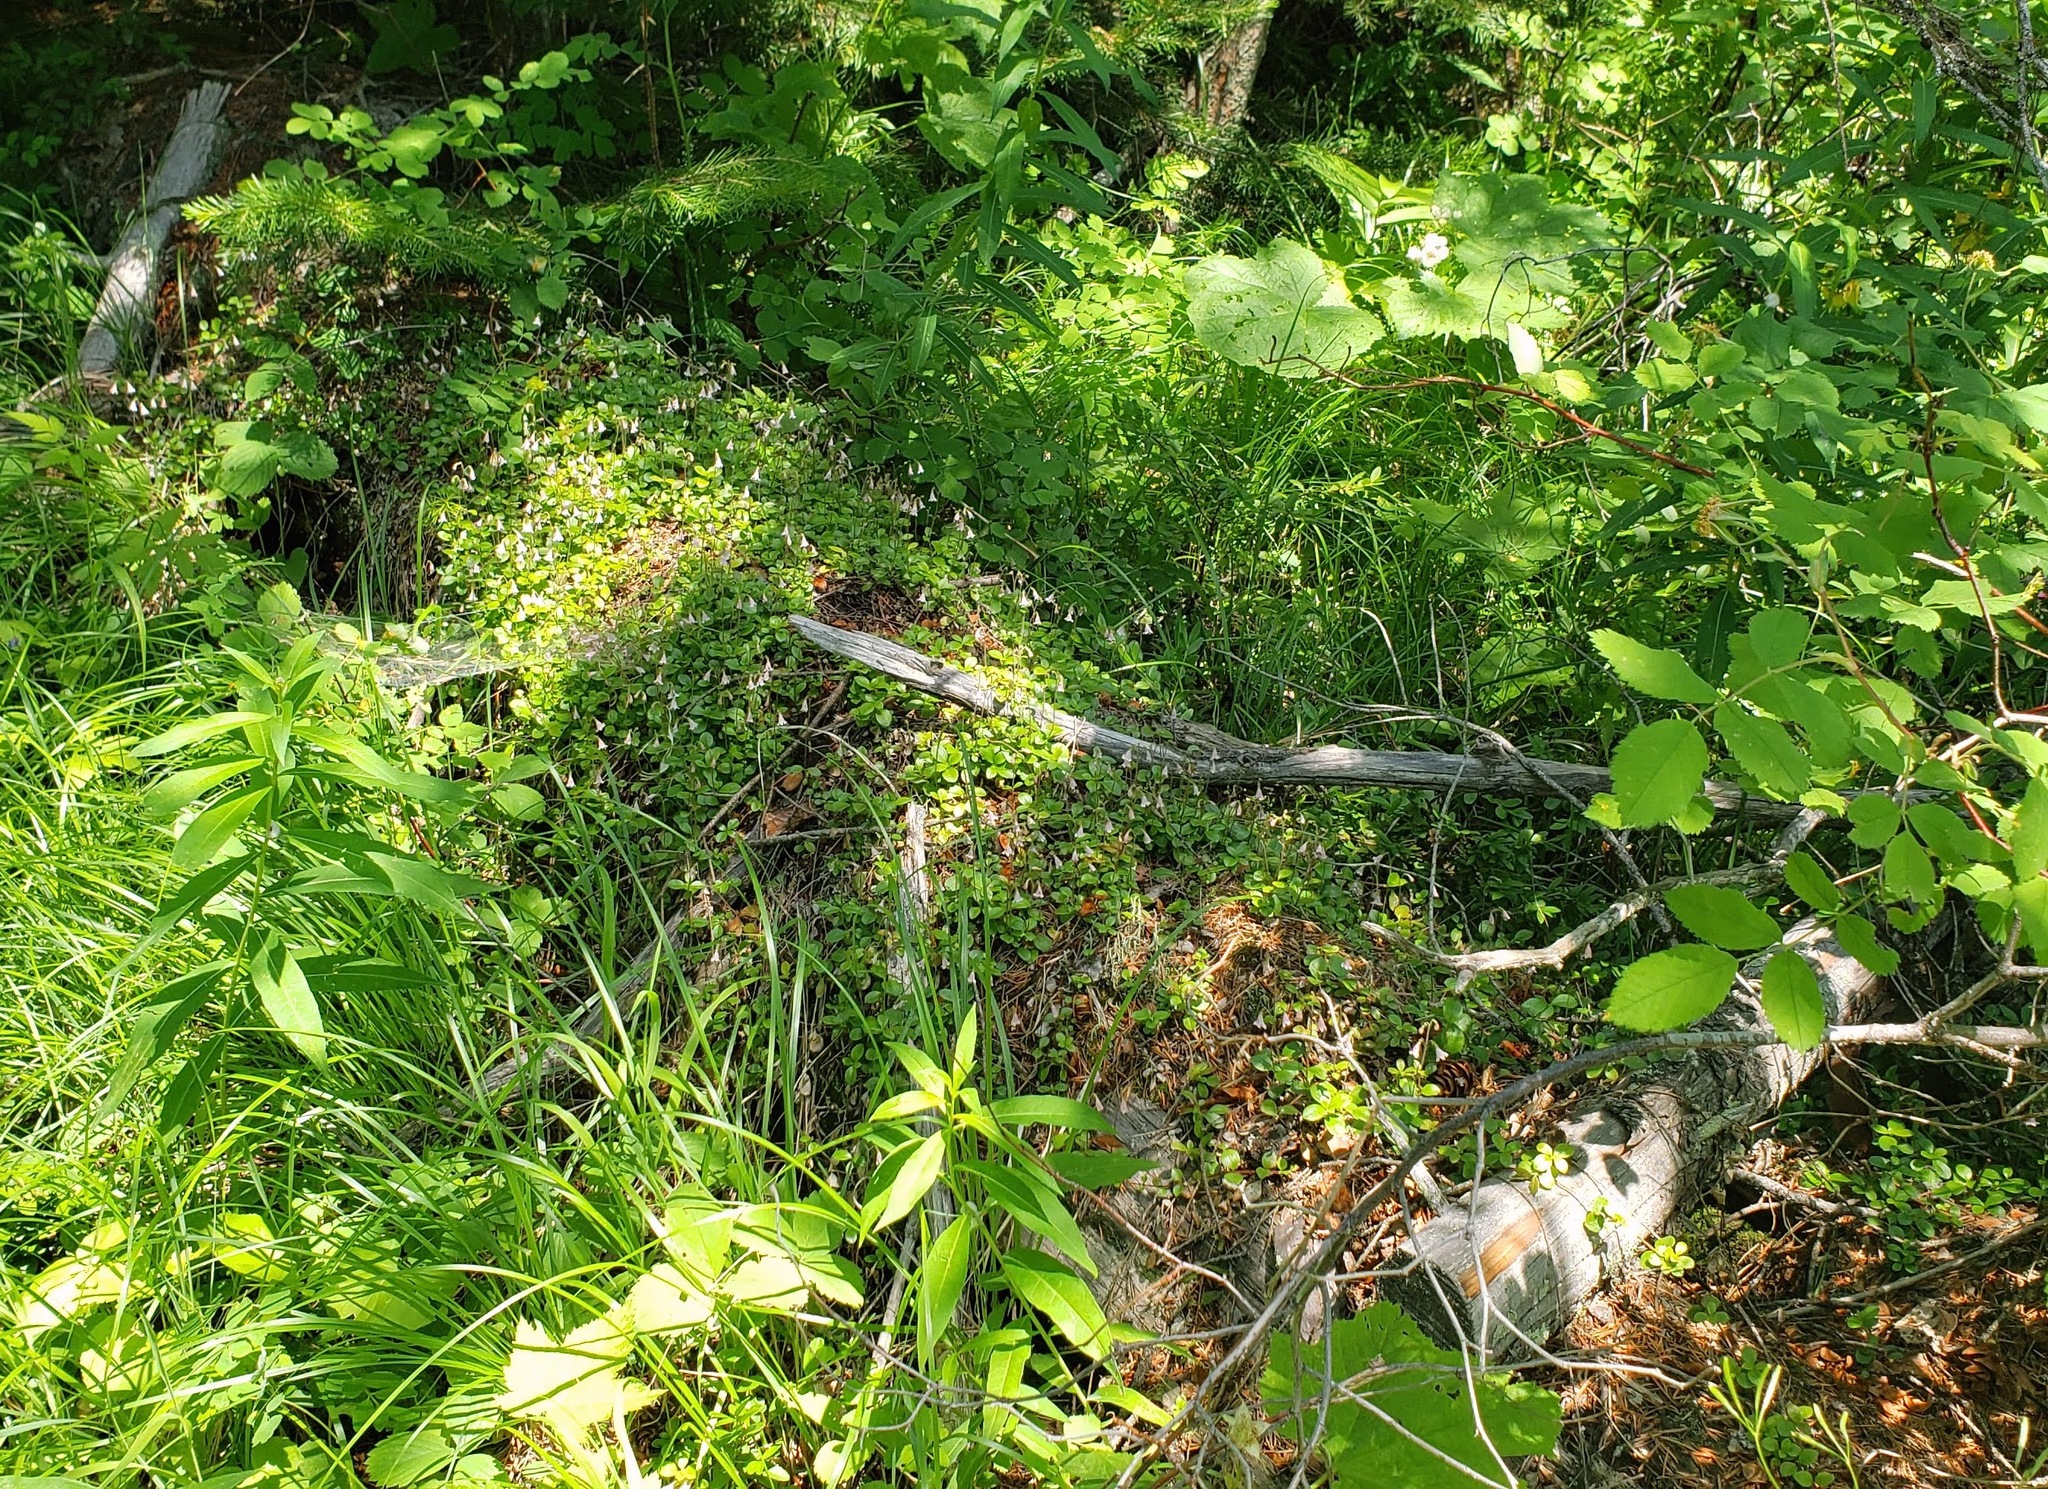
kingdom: Plantae
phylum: Tracheophyta
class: Magnoliopsida
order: Dipsacales
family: Caprifoliaceae
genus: Linnaea
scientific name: Linnaea borealis
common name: Twinflower
